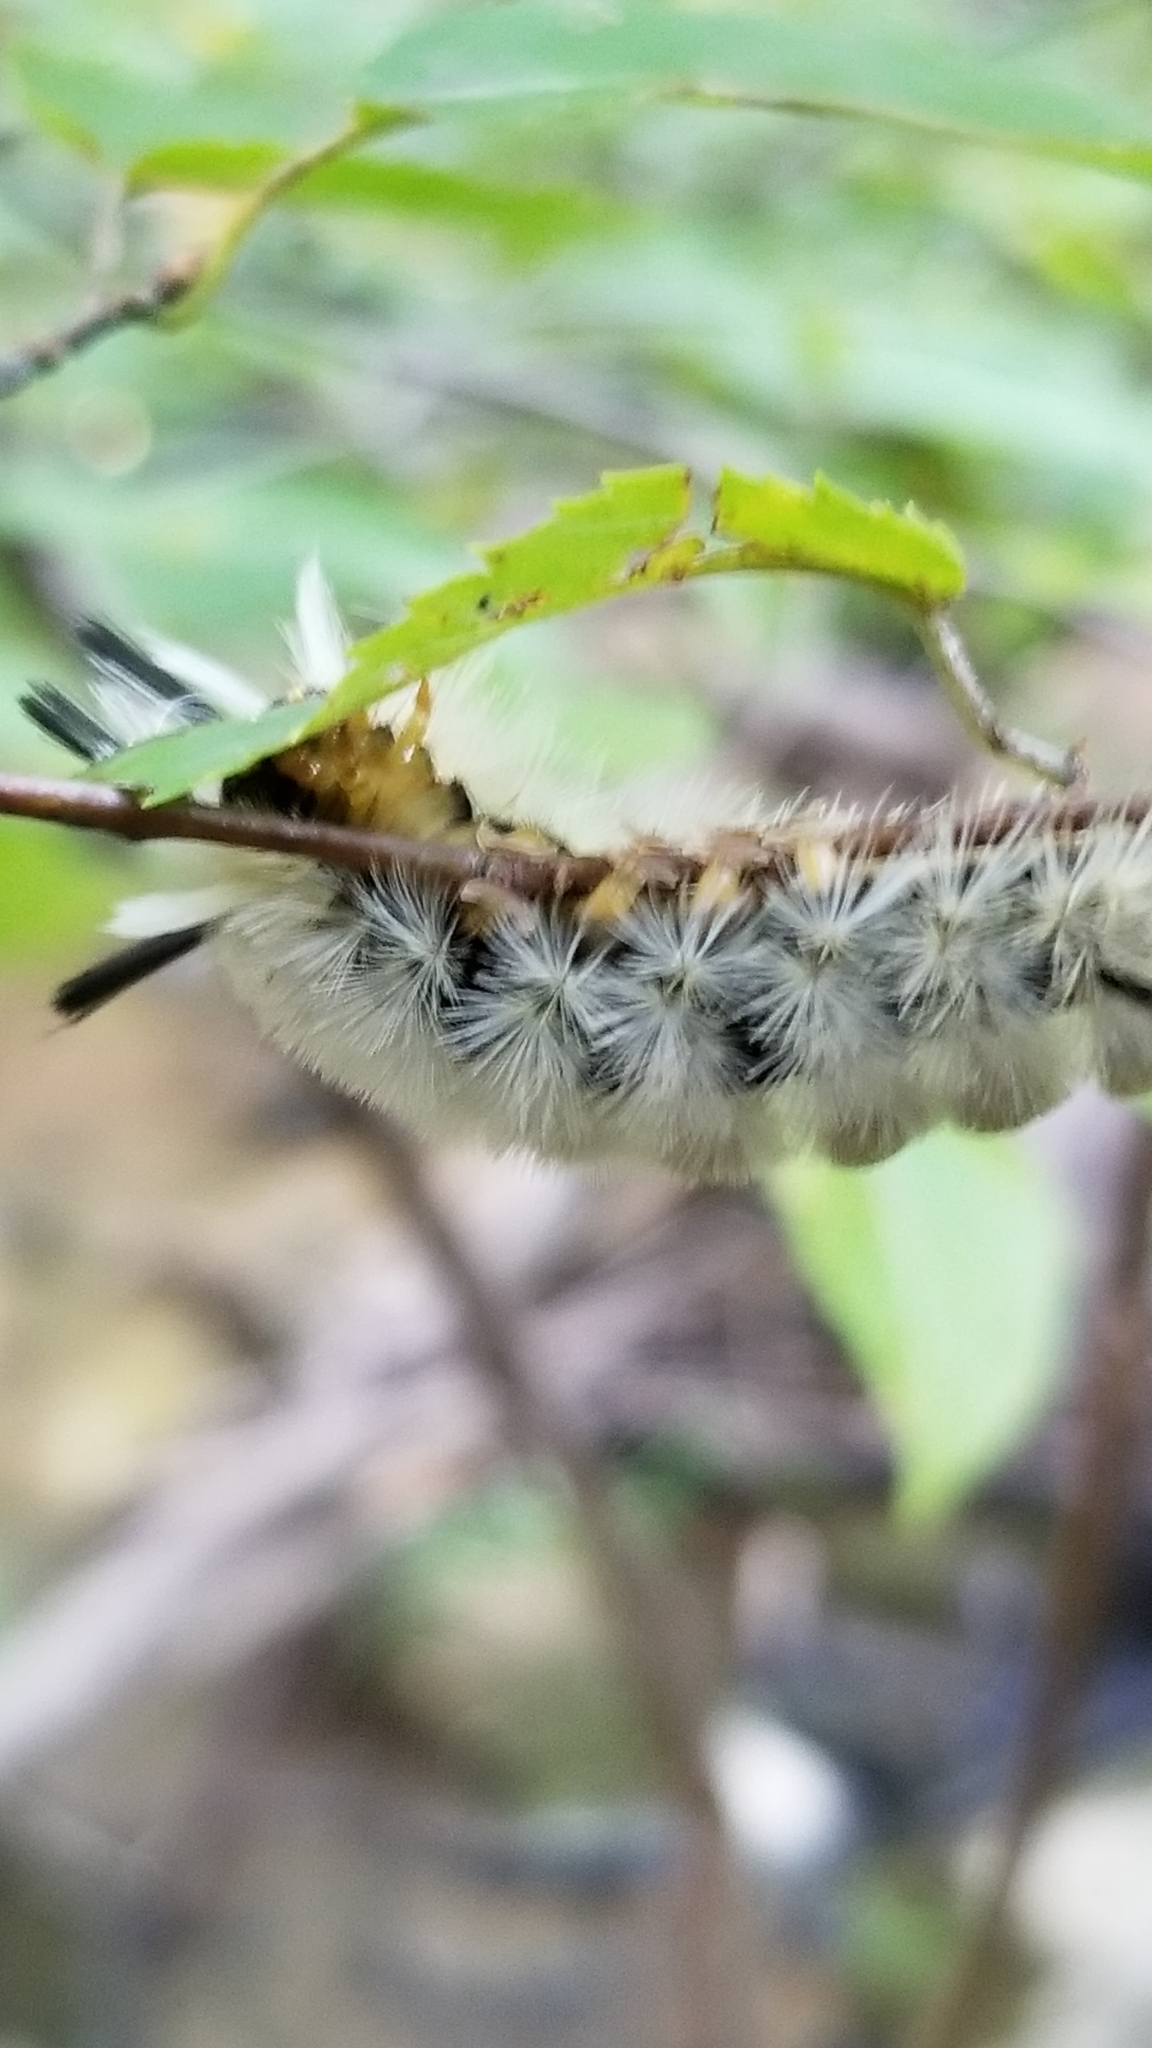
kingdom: Animalia
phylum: Arthropoda
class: Insecta
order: Lepidoptera
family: Erebidae
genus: Halysidota
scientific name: Halysidota tessellaris
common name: Banded tussock moth
